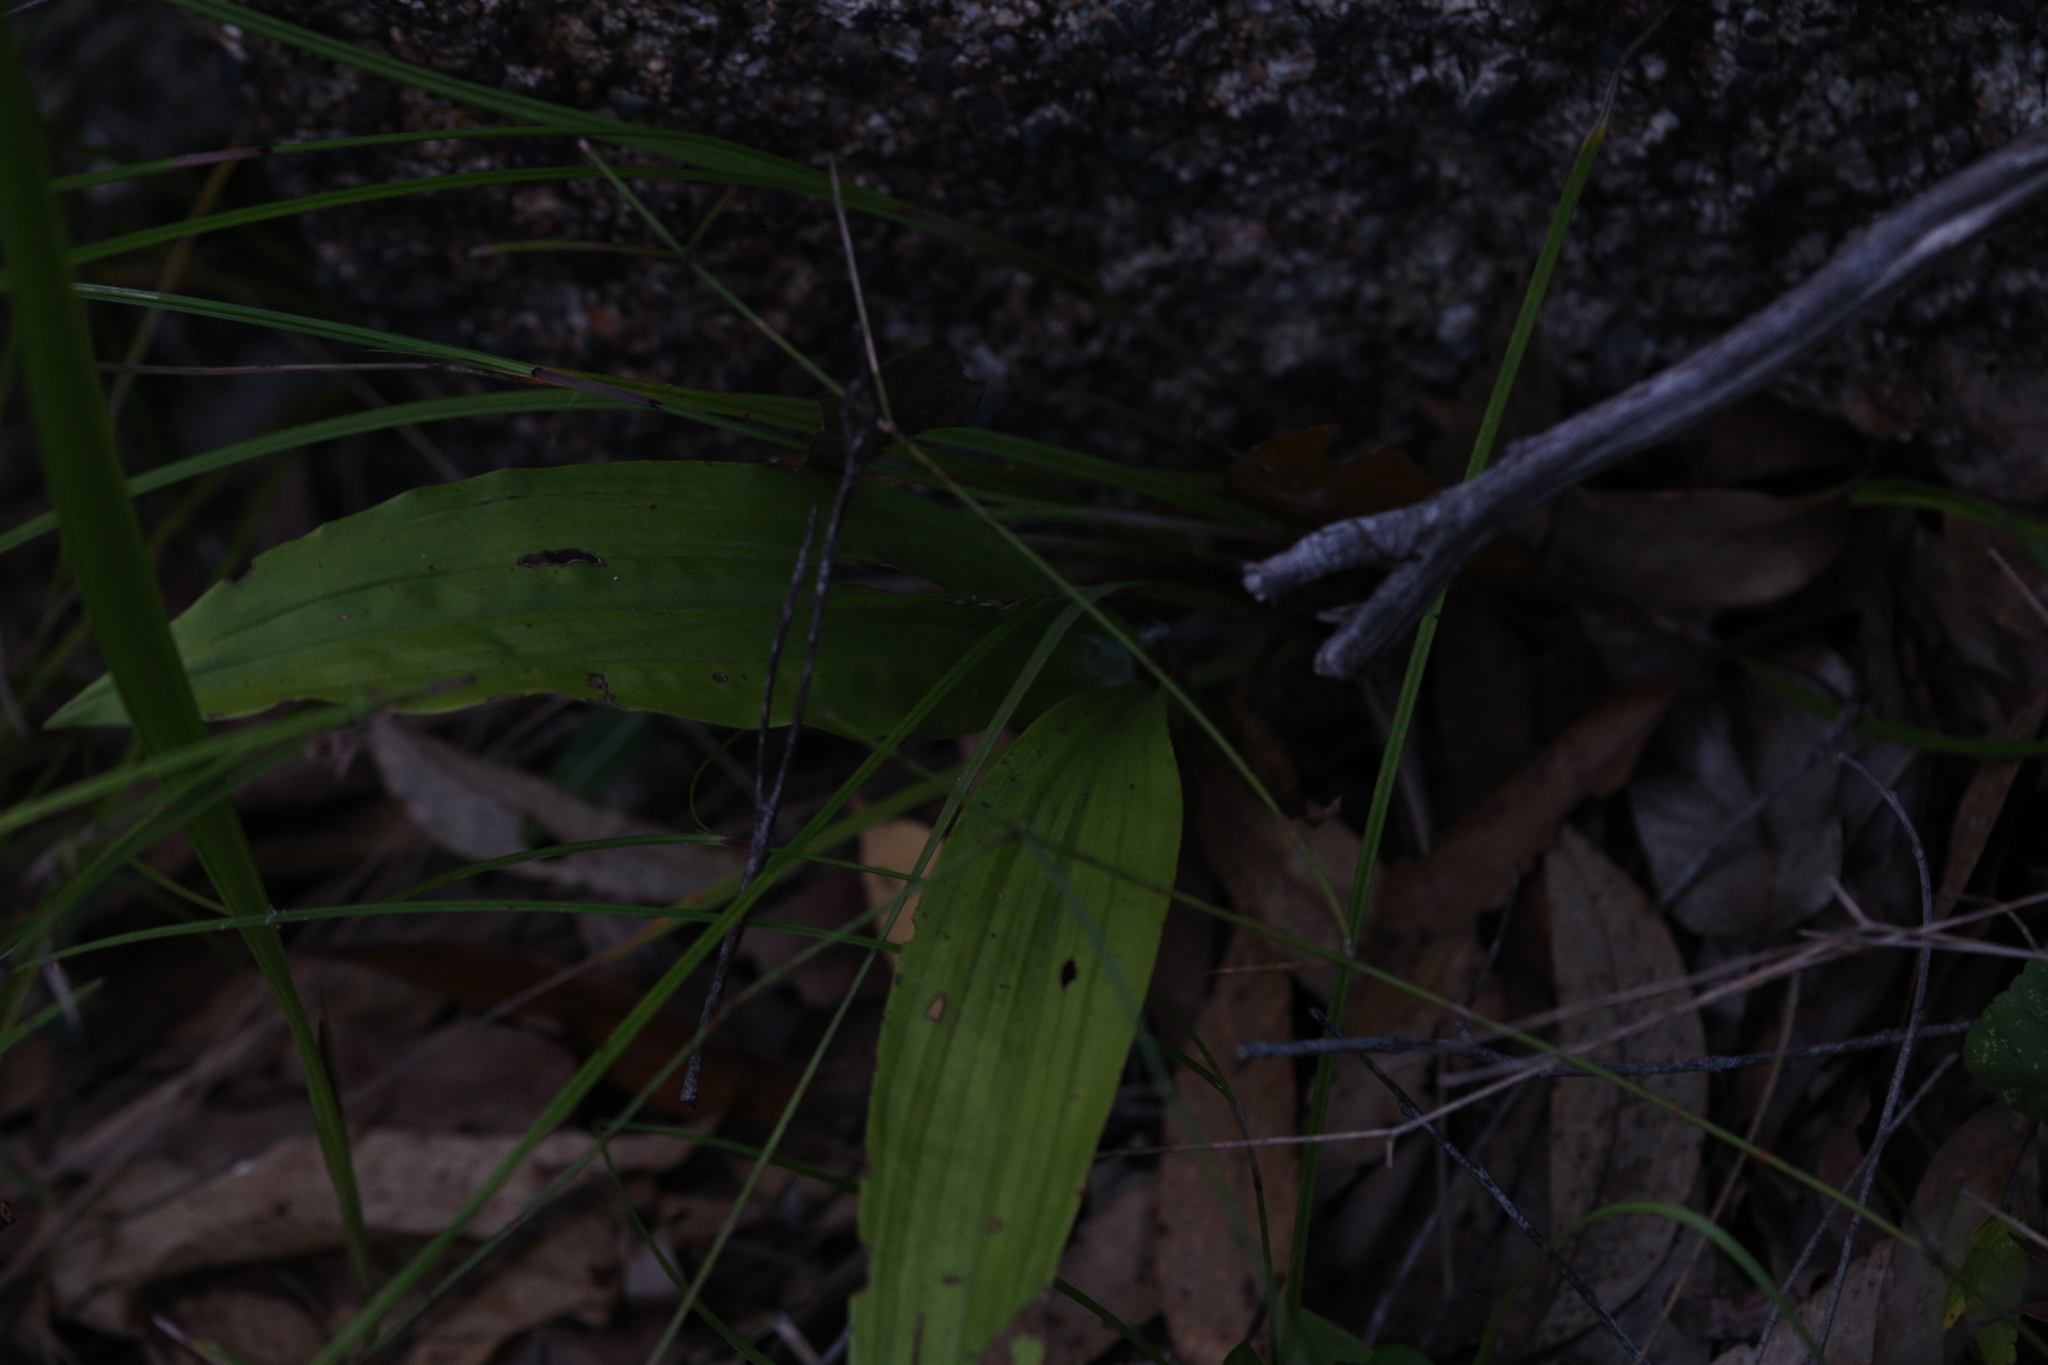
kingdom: Plantae
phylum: Tracheophyta
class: Liliopsida
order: Asparagales
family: Orchidaceae
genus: Eulophia
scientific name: Eulophia cernua
